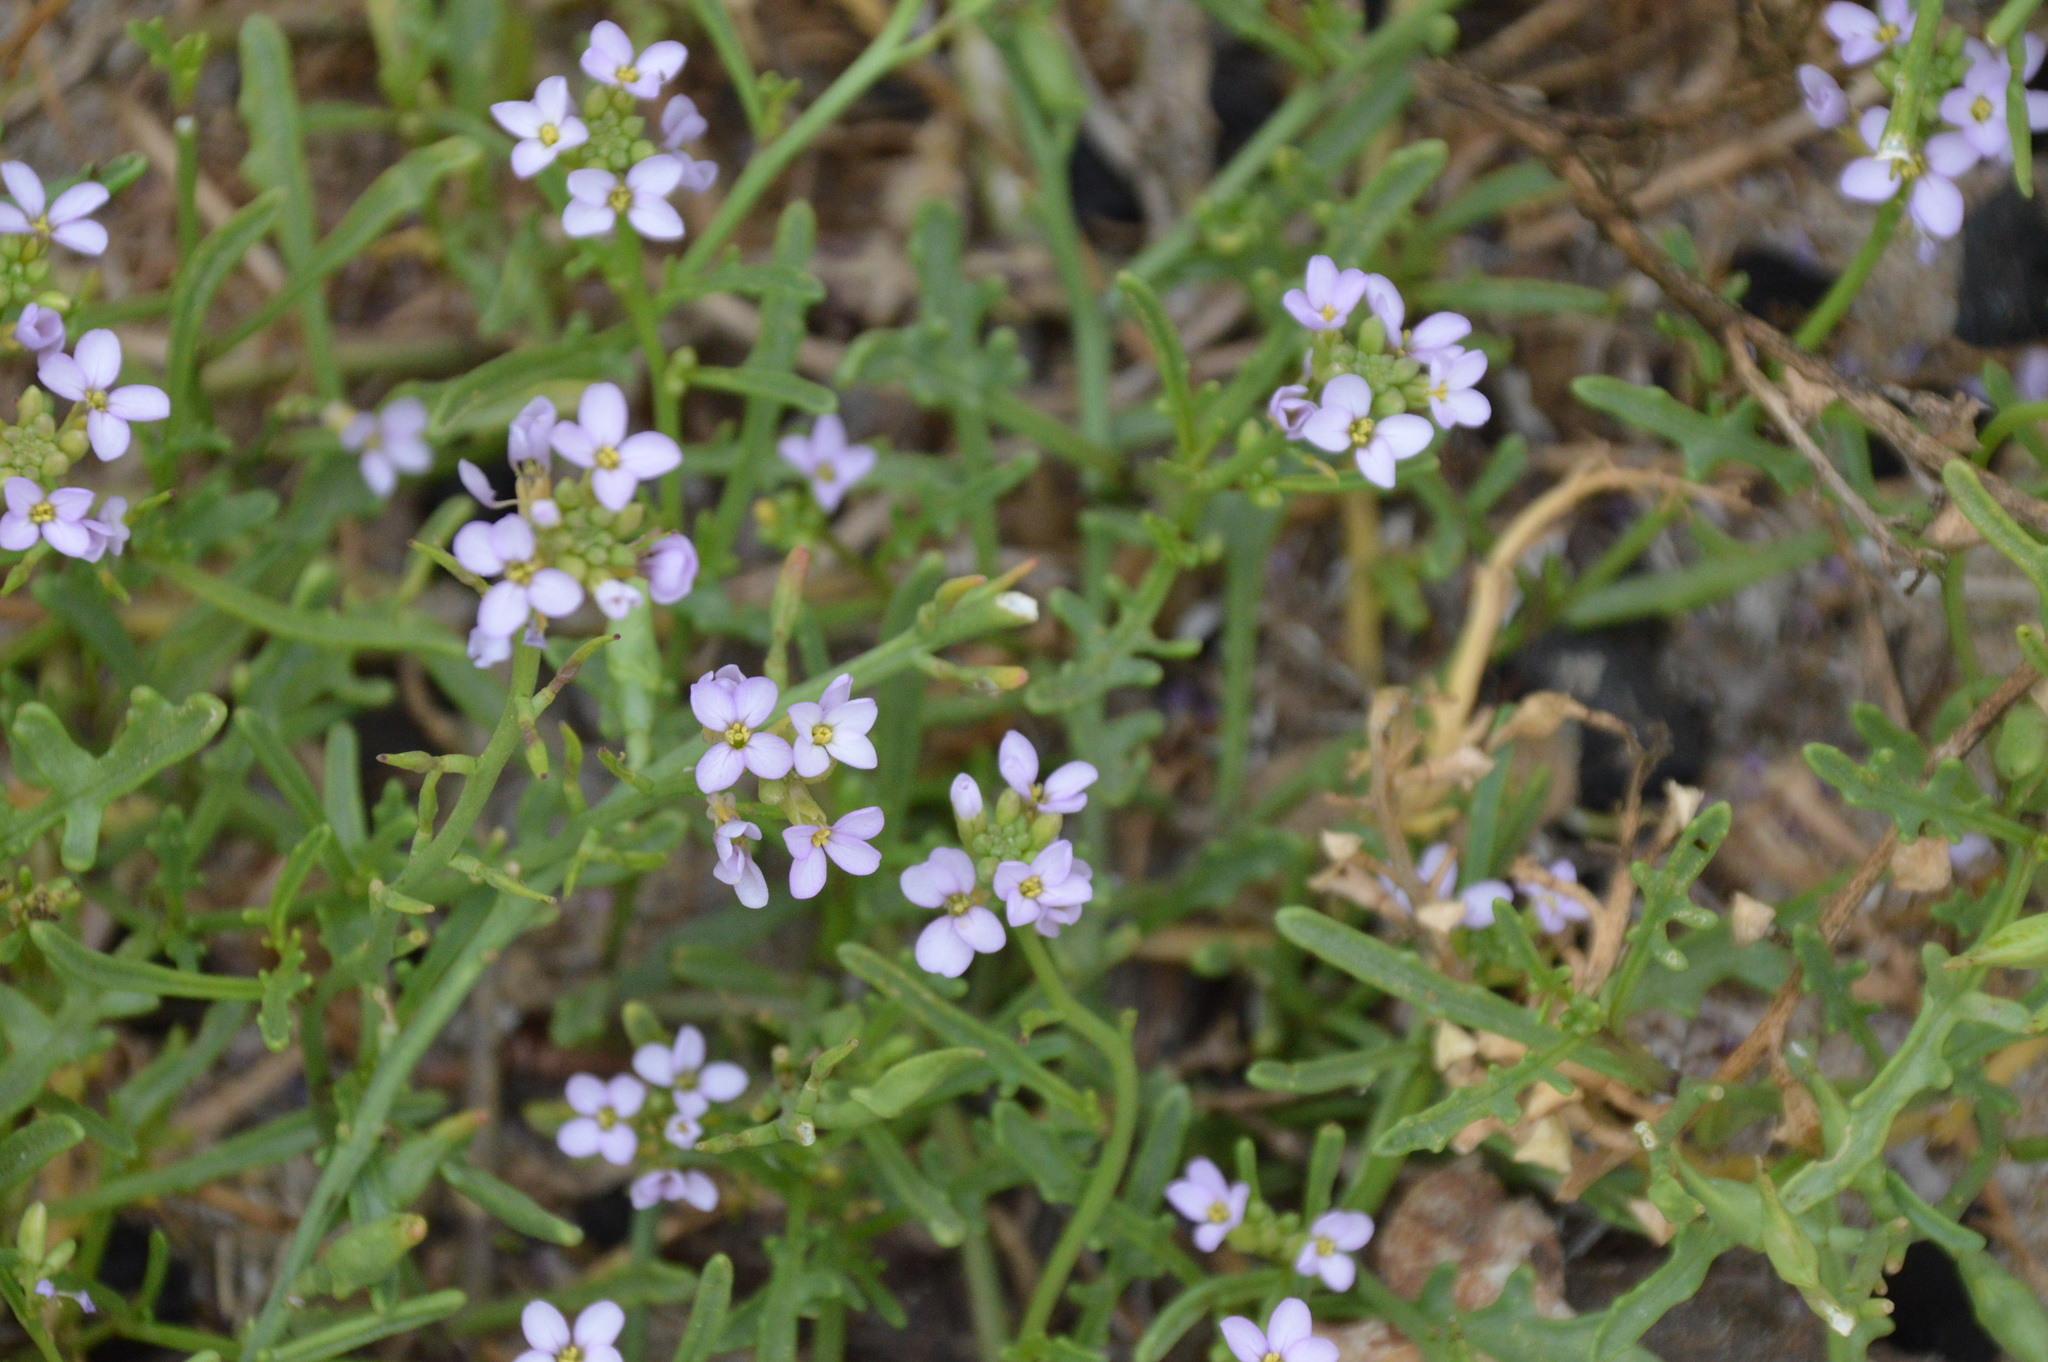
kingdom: Plantae
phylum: Tracheophyta
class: Magnoliopsida
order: Brassicales
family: Brassicaceae
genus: Cakile
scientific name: Cakile maritima
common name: Sea rocket
